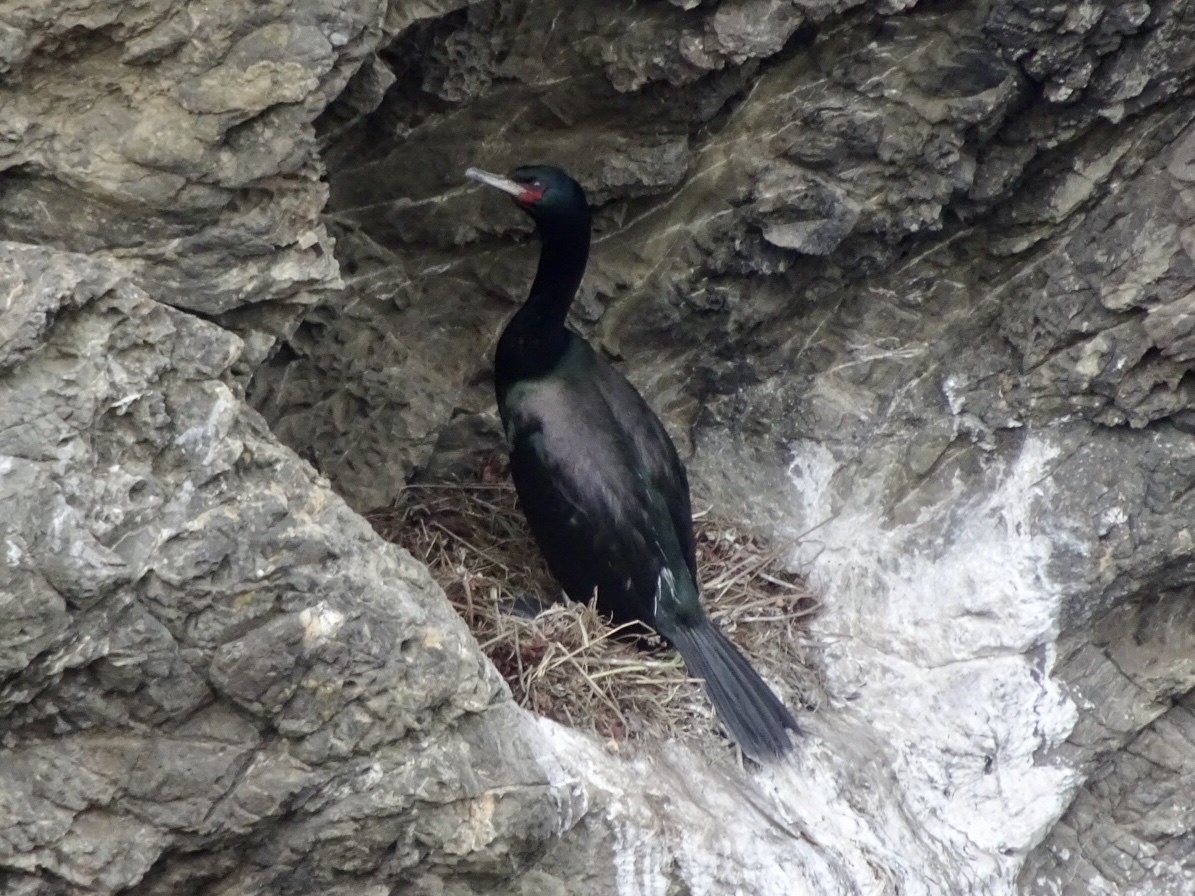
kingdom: Animalia
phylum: Chordata
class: Aves
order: Suliformes
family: Phalacrocoracidae
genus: Phalacrocorax
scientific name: Phalacrocorax pelagicus
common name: Pelagic cormorant
